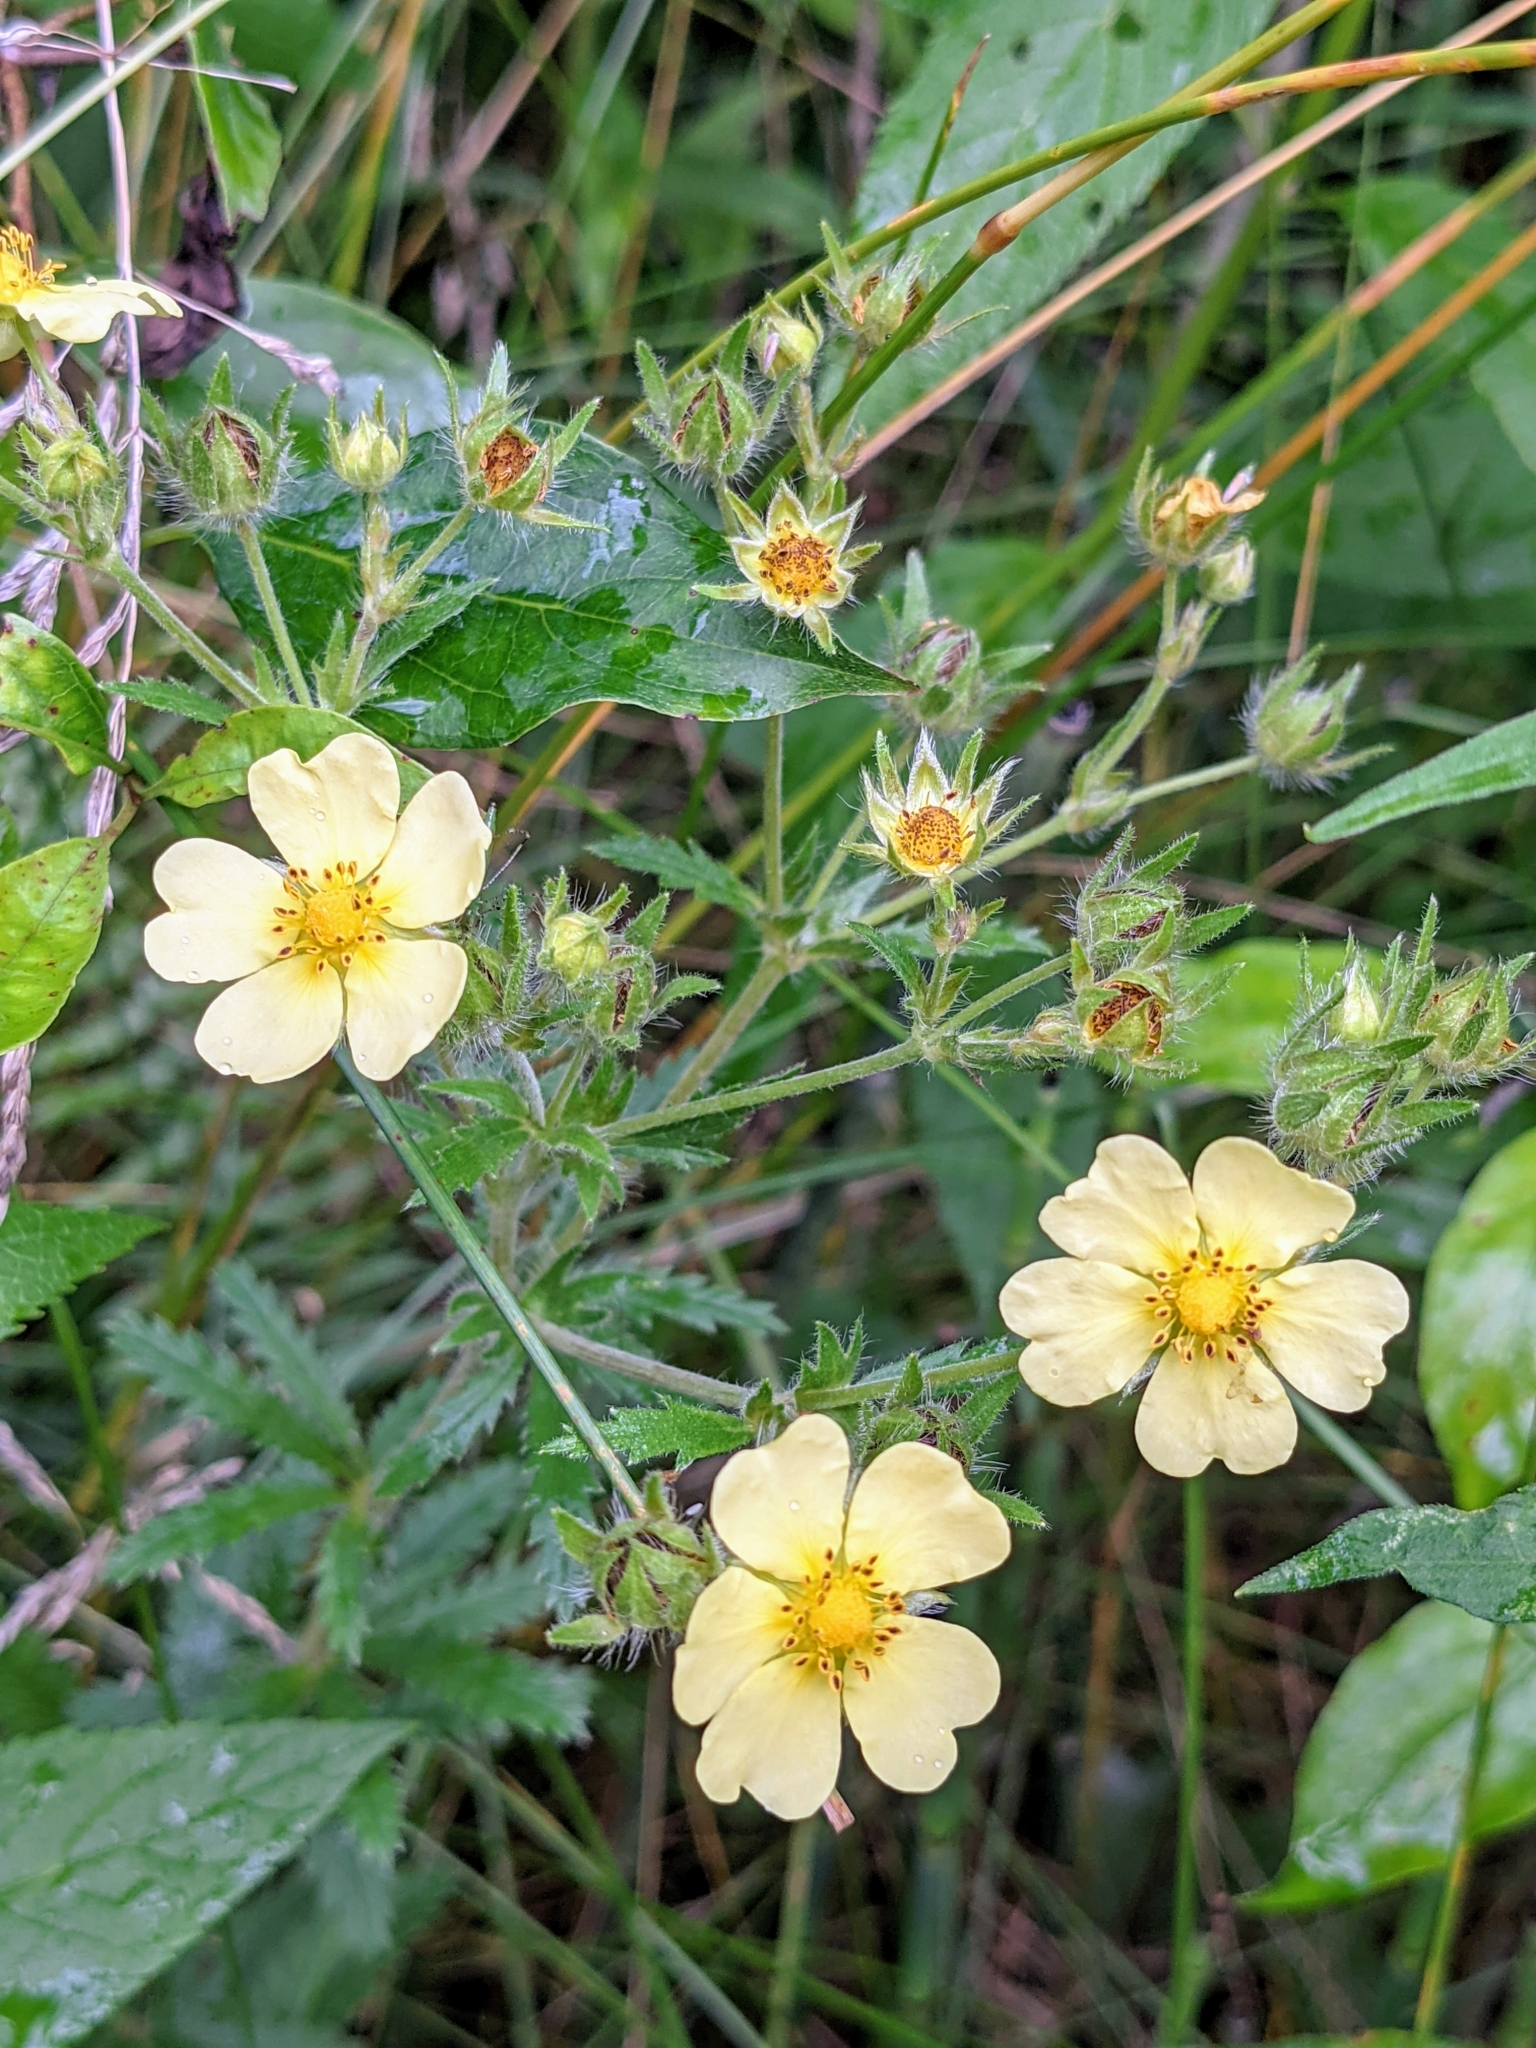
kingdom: Plantae
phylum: Tracheophyta
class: Magnoliopsida
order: Rosales
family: Rosaceae
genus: Potentilla
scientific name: Potentilla recta
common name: Sulphur cinquefoil
